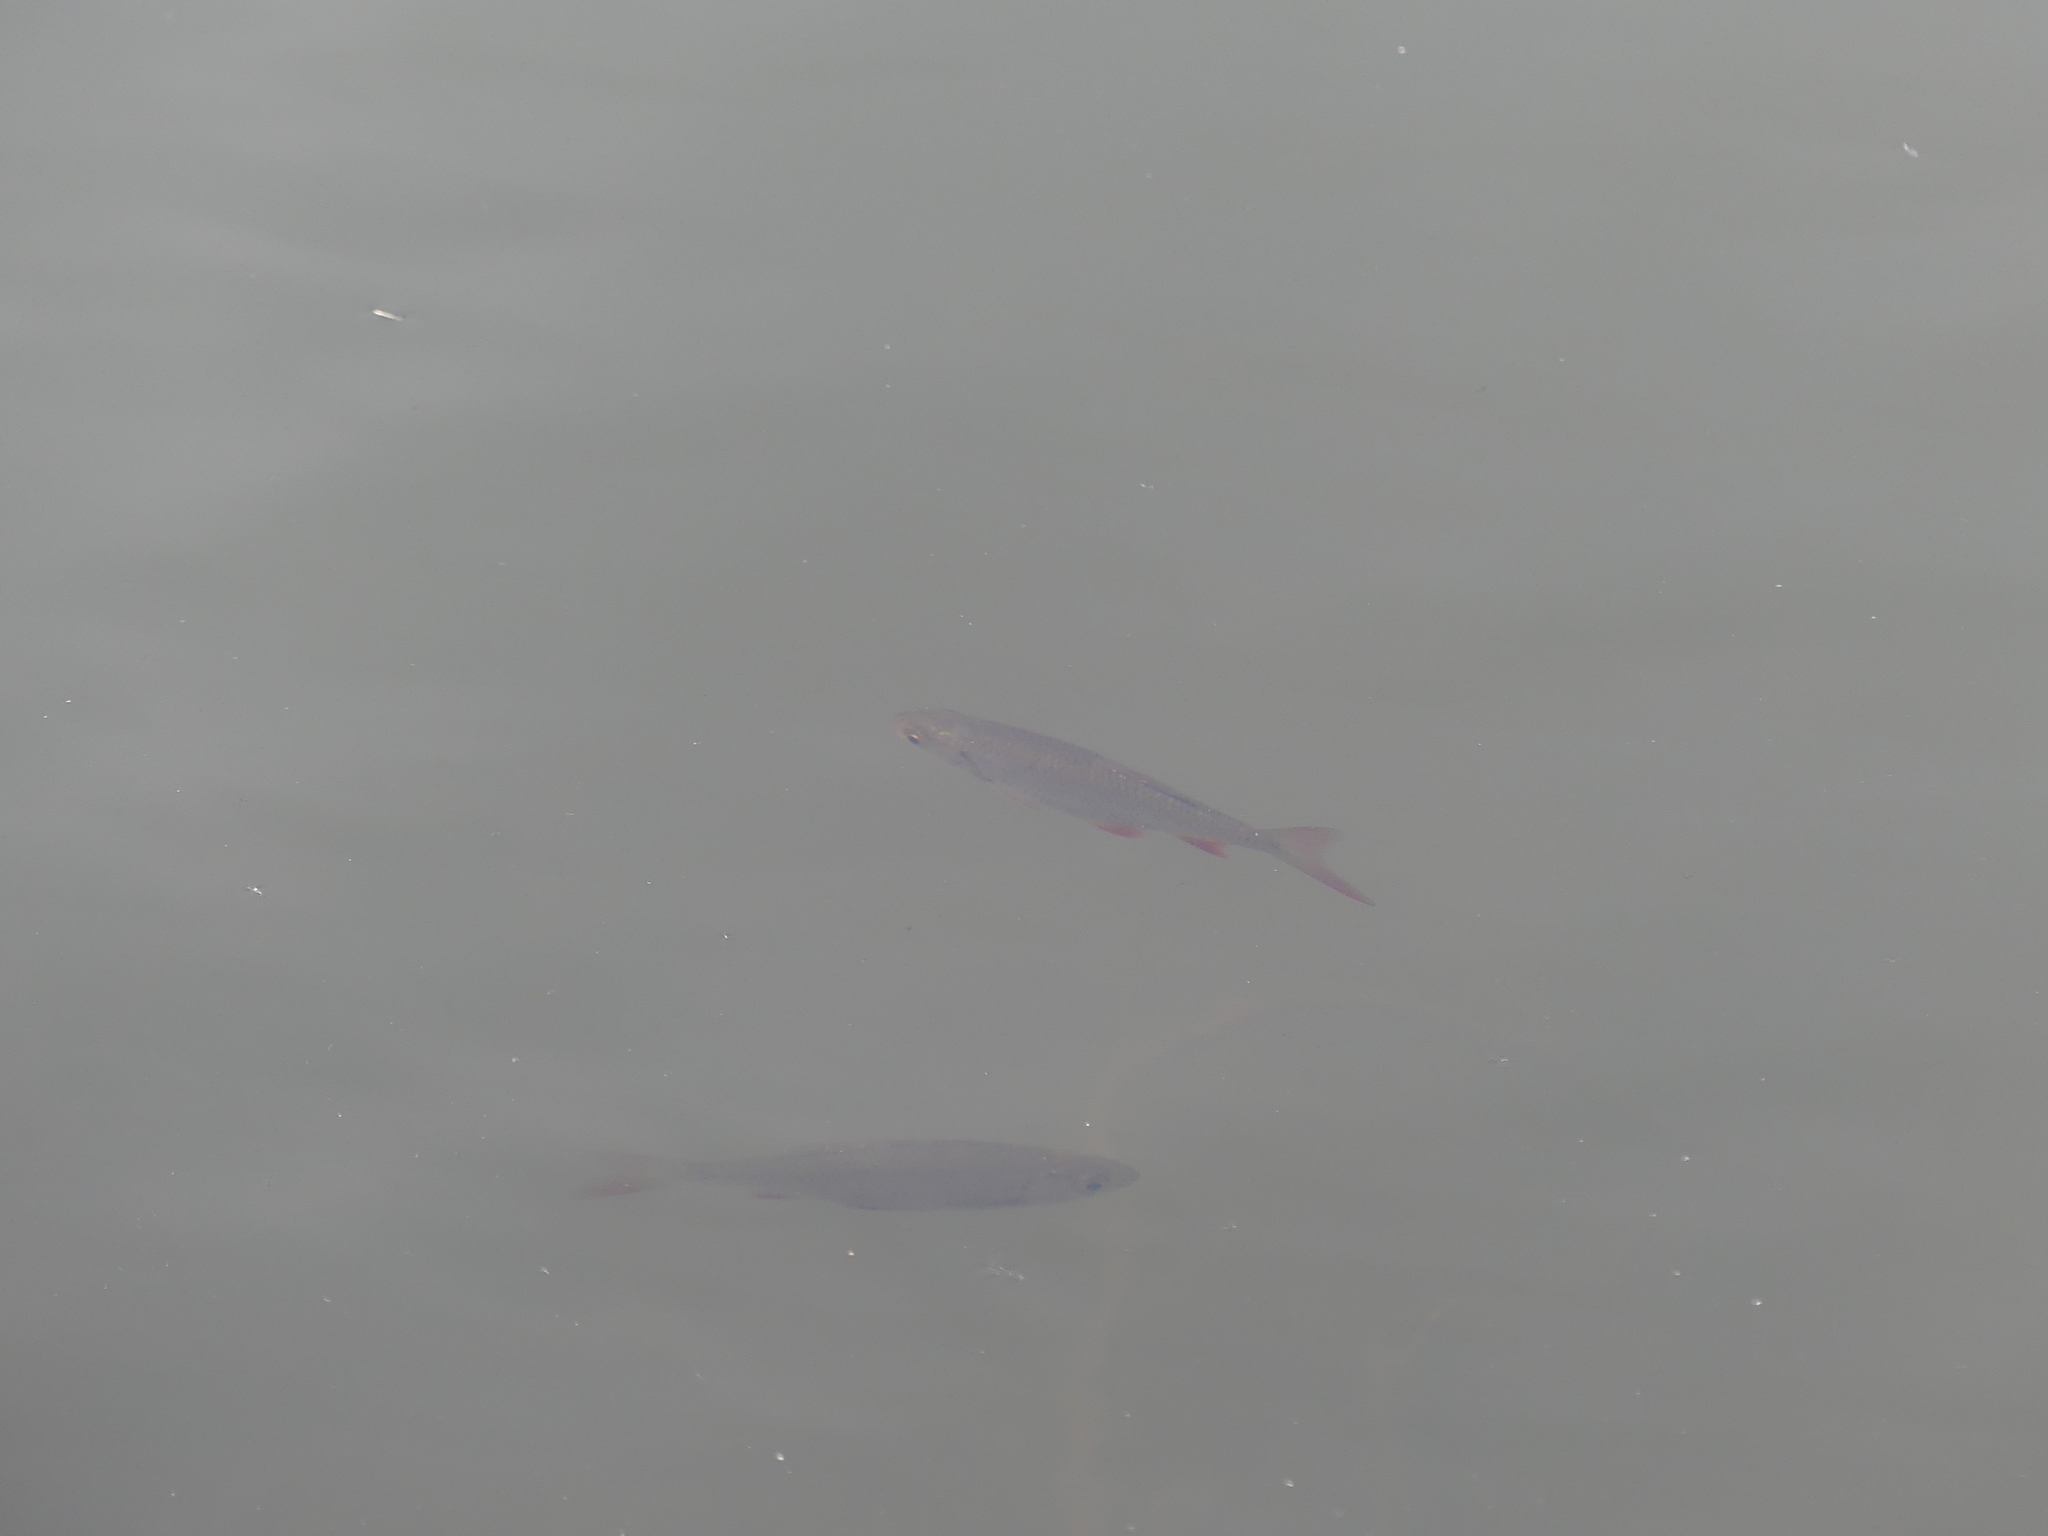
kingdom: Animalia
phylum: Chordata
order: Cypriniformes
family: Cyprinidae
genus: Scardinius
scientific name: Scardinius erythrophthalmus
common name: Rudd
